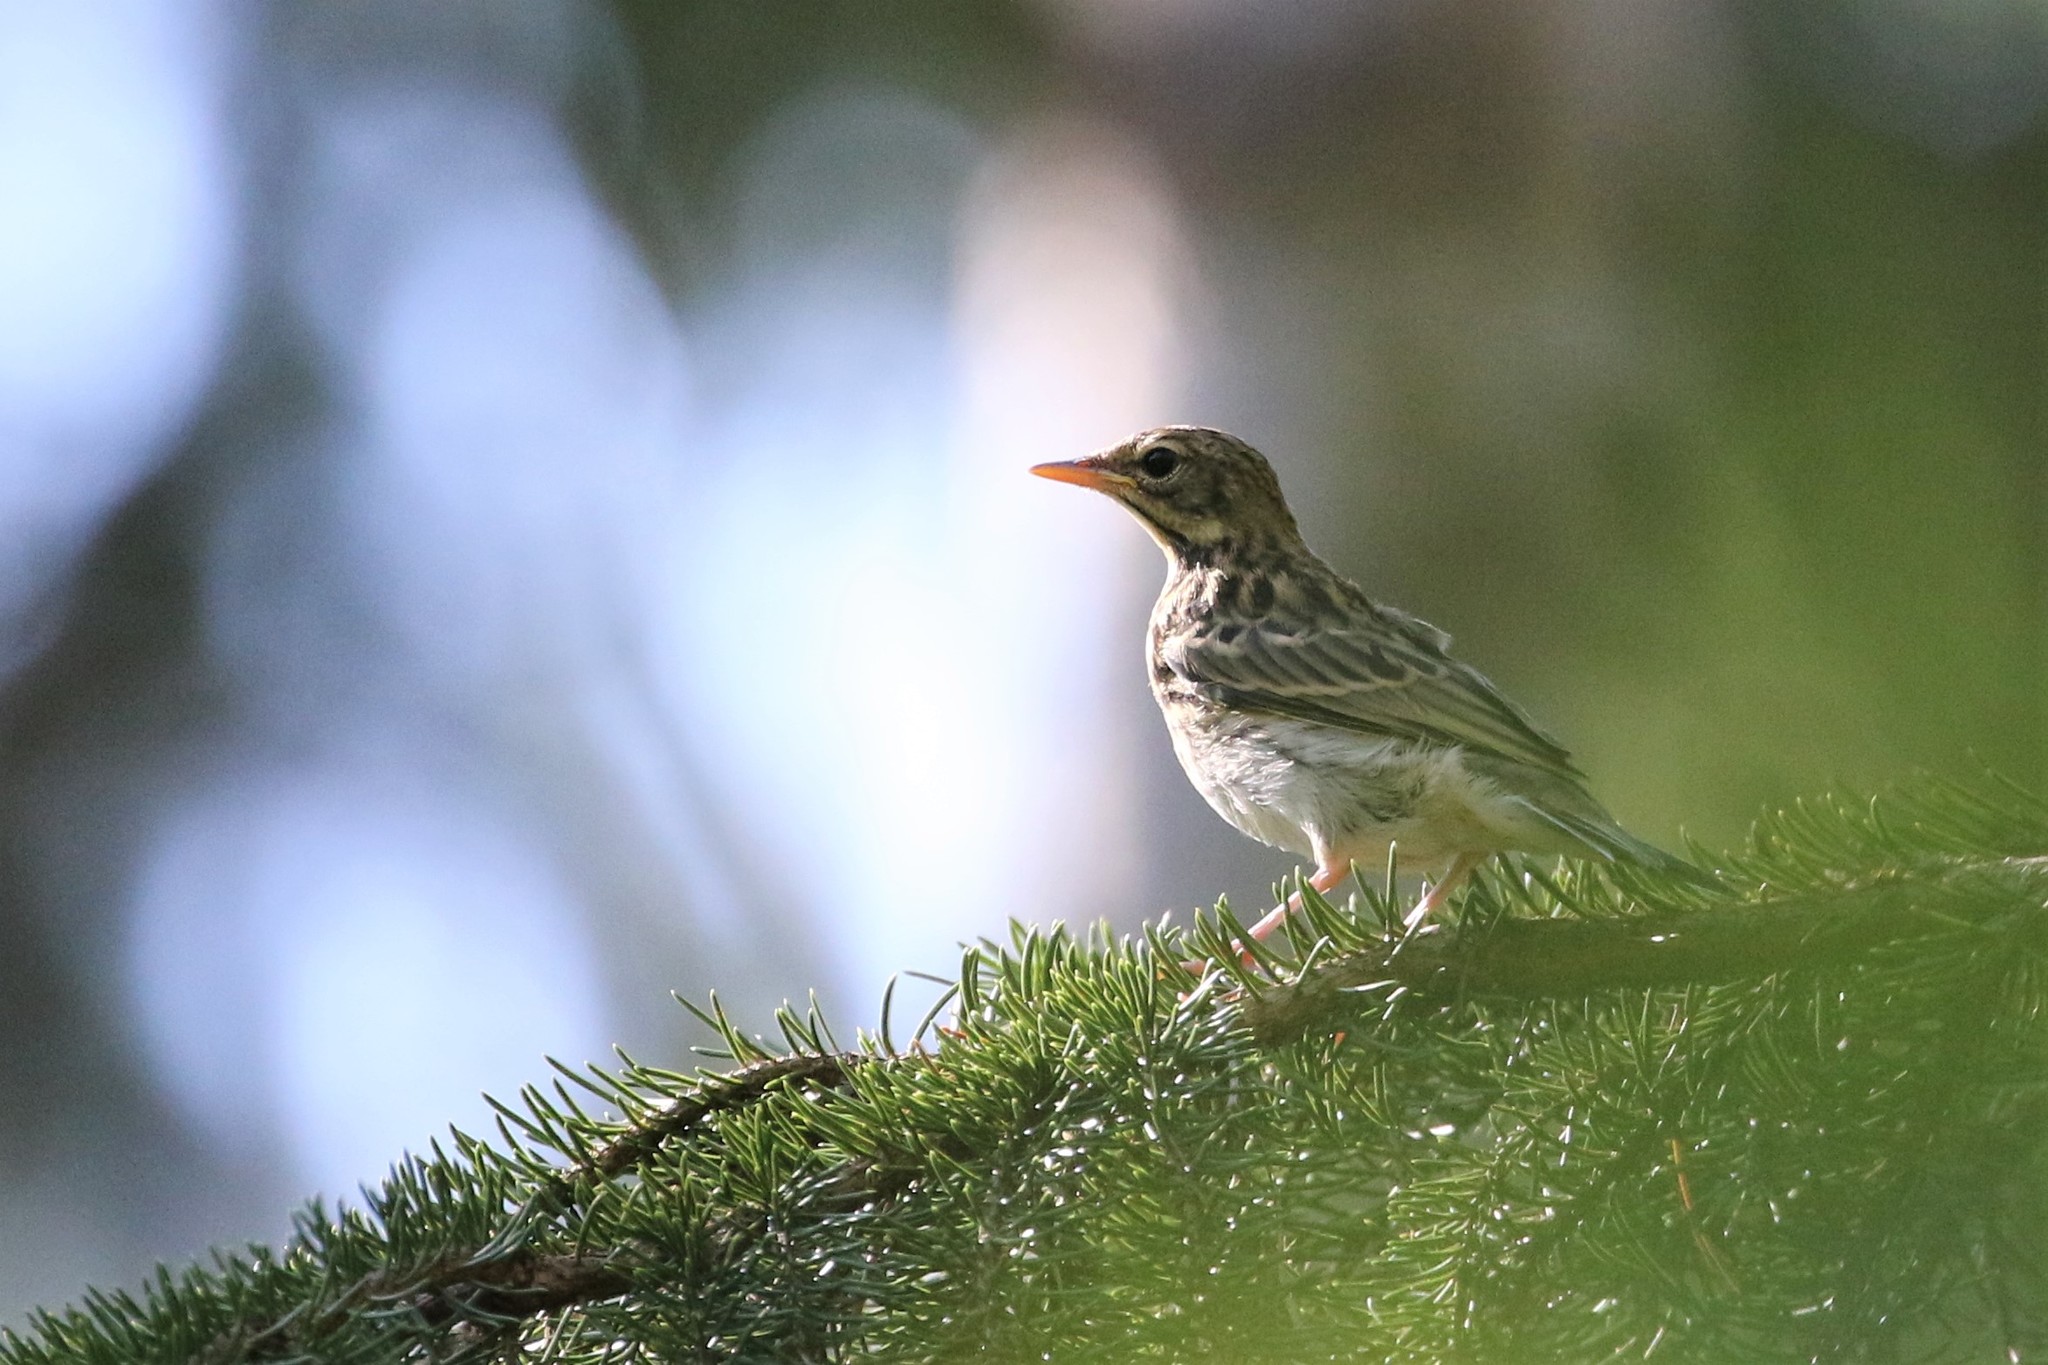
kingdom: Animalia
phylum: Chordata
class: Aves
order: Passeriformes
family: Motacillidae
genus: Anthus
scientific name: Anthus trivialis
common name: Tree pipit
